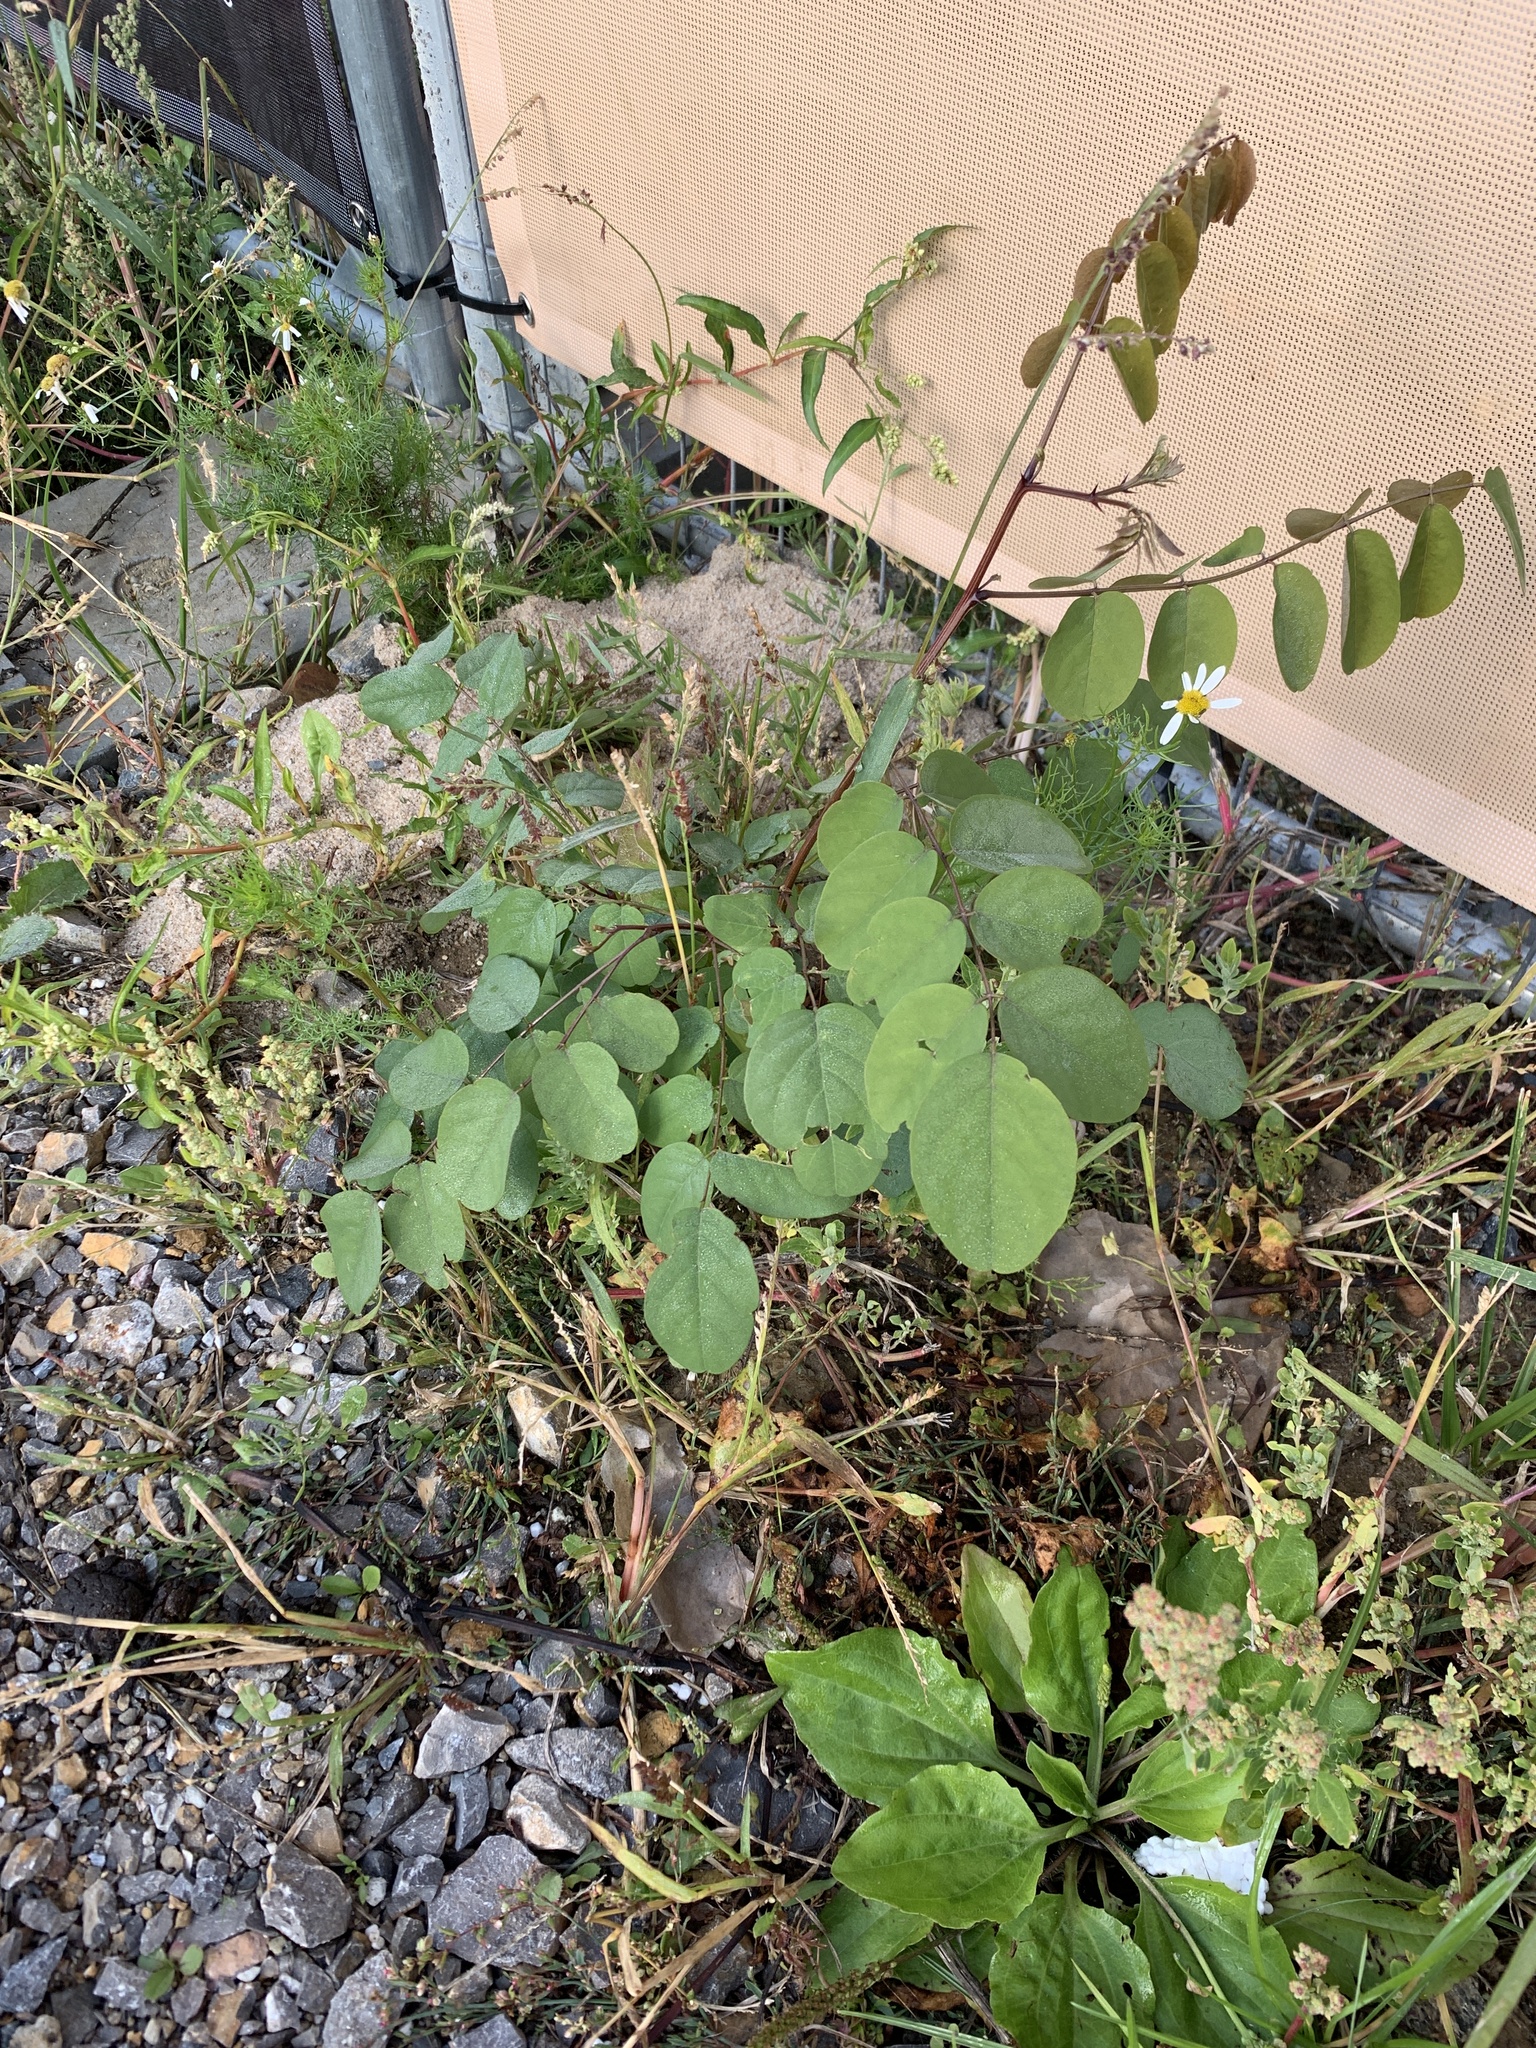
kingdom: Plantae
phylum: Tracheophyta
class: Magnoliopsida
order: Fabales
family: Fabaceae
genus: Robinia
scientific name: Robinia pseudoacacia
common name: Black locust
